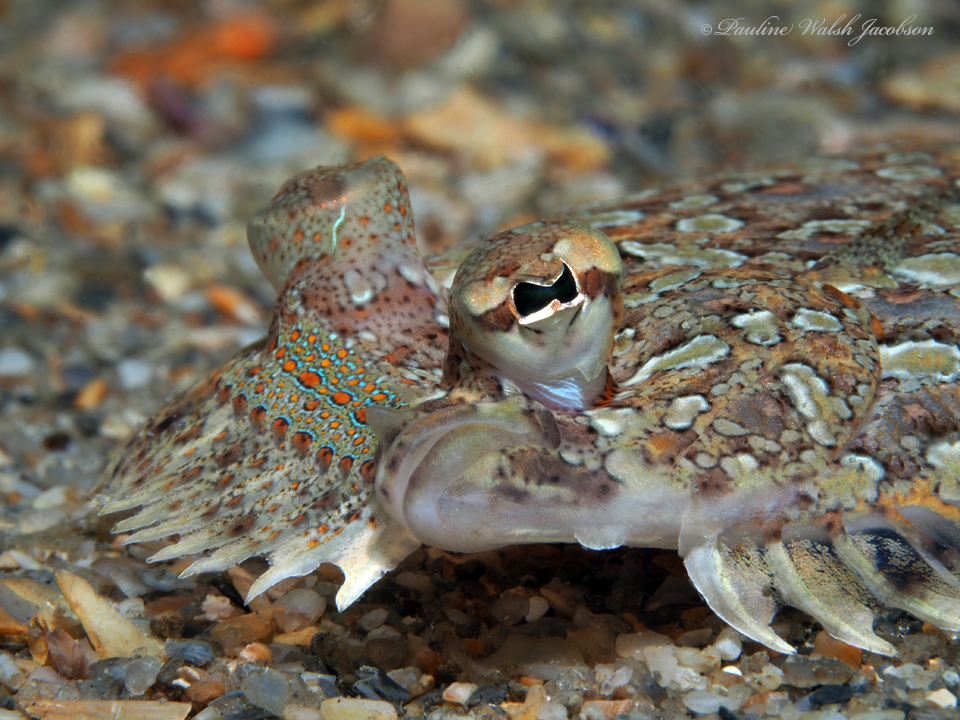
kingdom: Animalia
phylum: Chordata
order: Pleuronectiformes
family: Bothidae
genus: Bothus
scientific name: Bothus ocellatus
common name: Eyed flounder
